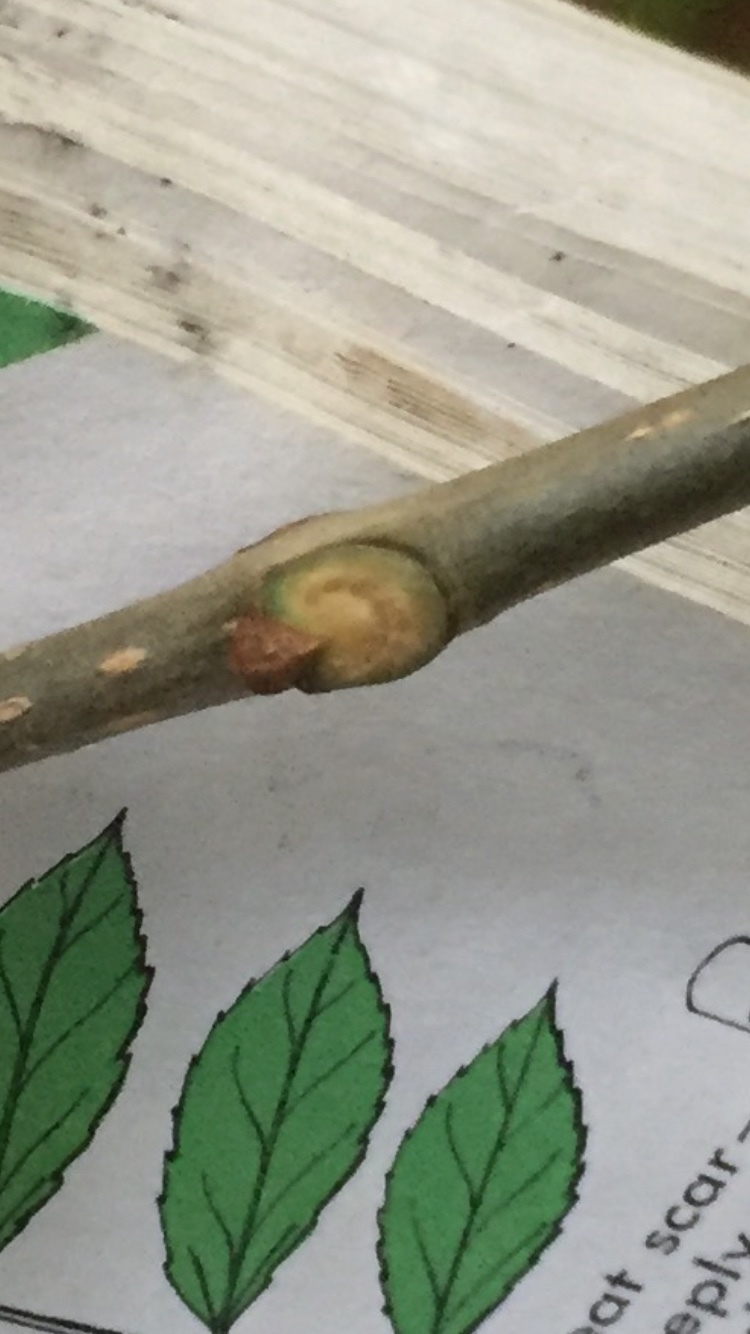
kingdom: Plantae
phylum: Tracheophyta
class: Magnoliopsida
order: Fabales
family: Fabaceae
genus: Robinia
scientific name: Robinia pseudoacacia
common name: Black locust
